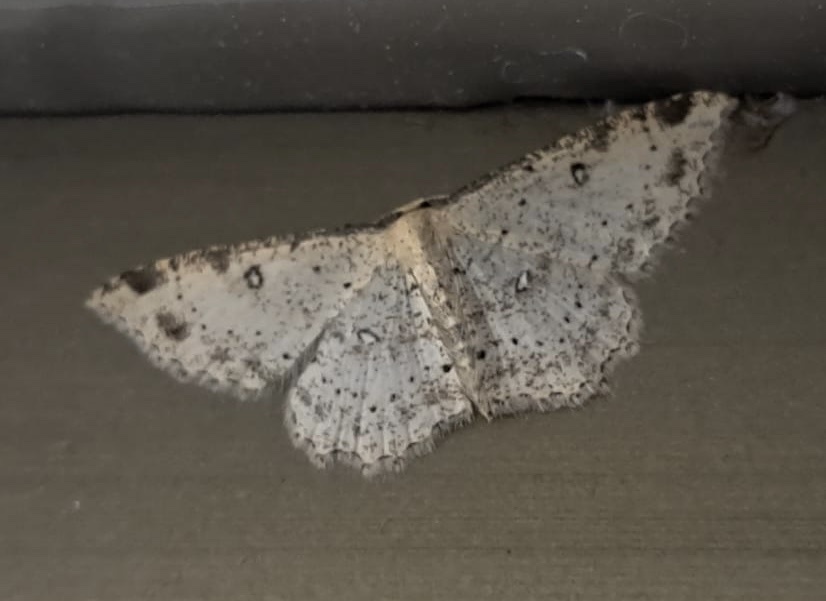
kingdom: Animalia
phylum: Arthropoda
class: Insecta
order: Lepidoptera
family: Geometridae
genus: Cyclophora
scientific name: Cyclophora nanaria
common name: Cankerworm
